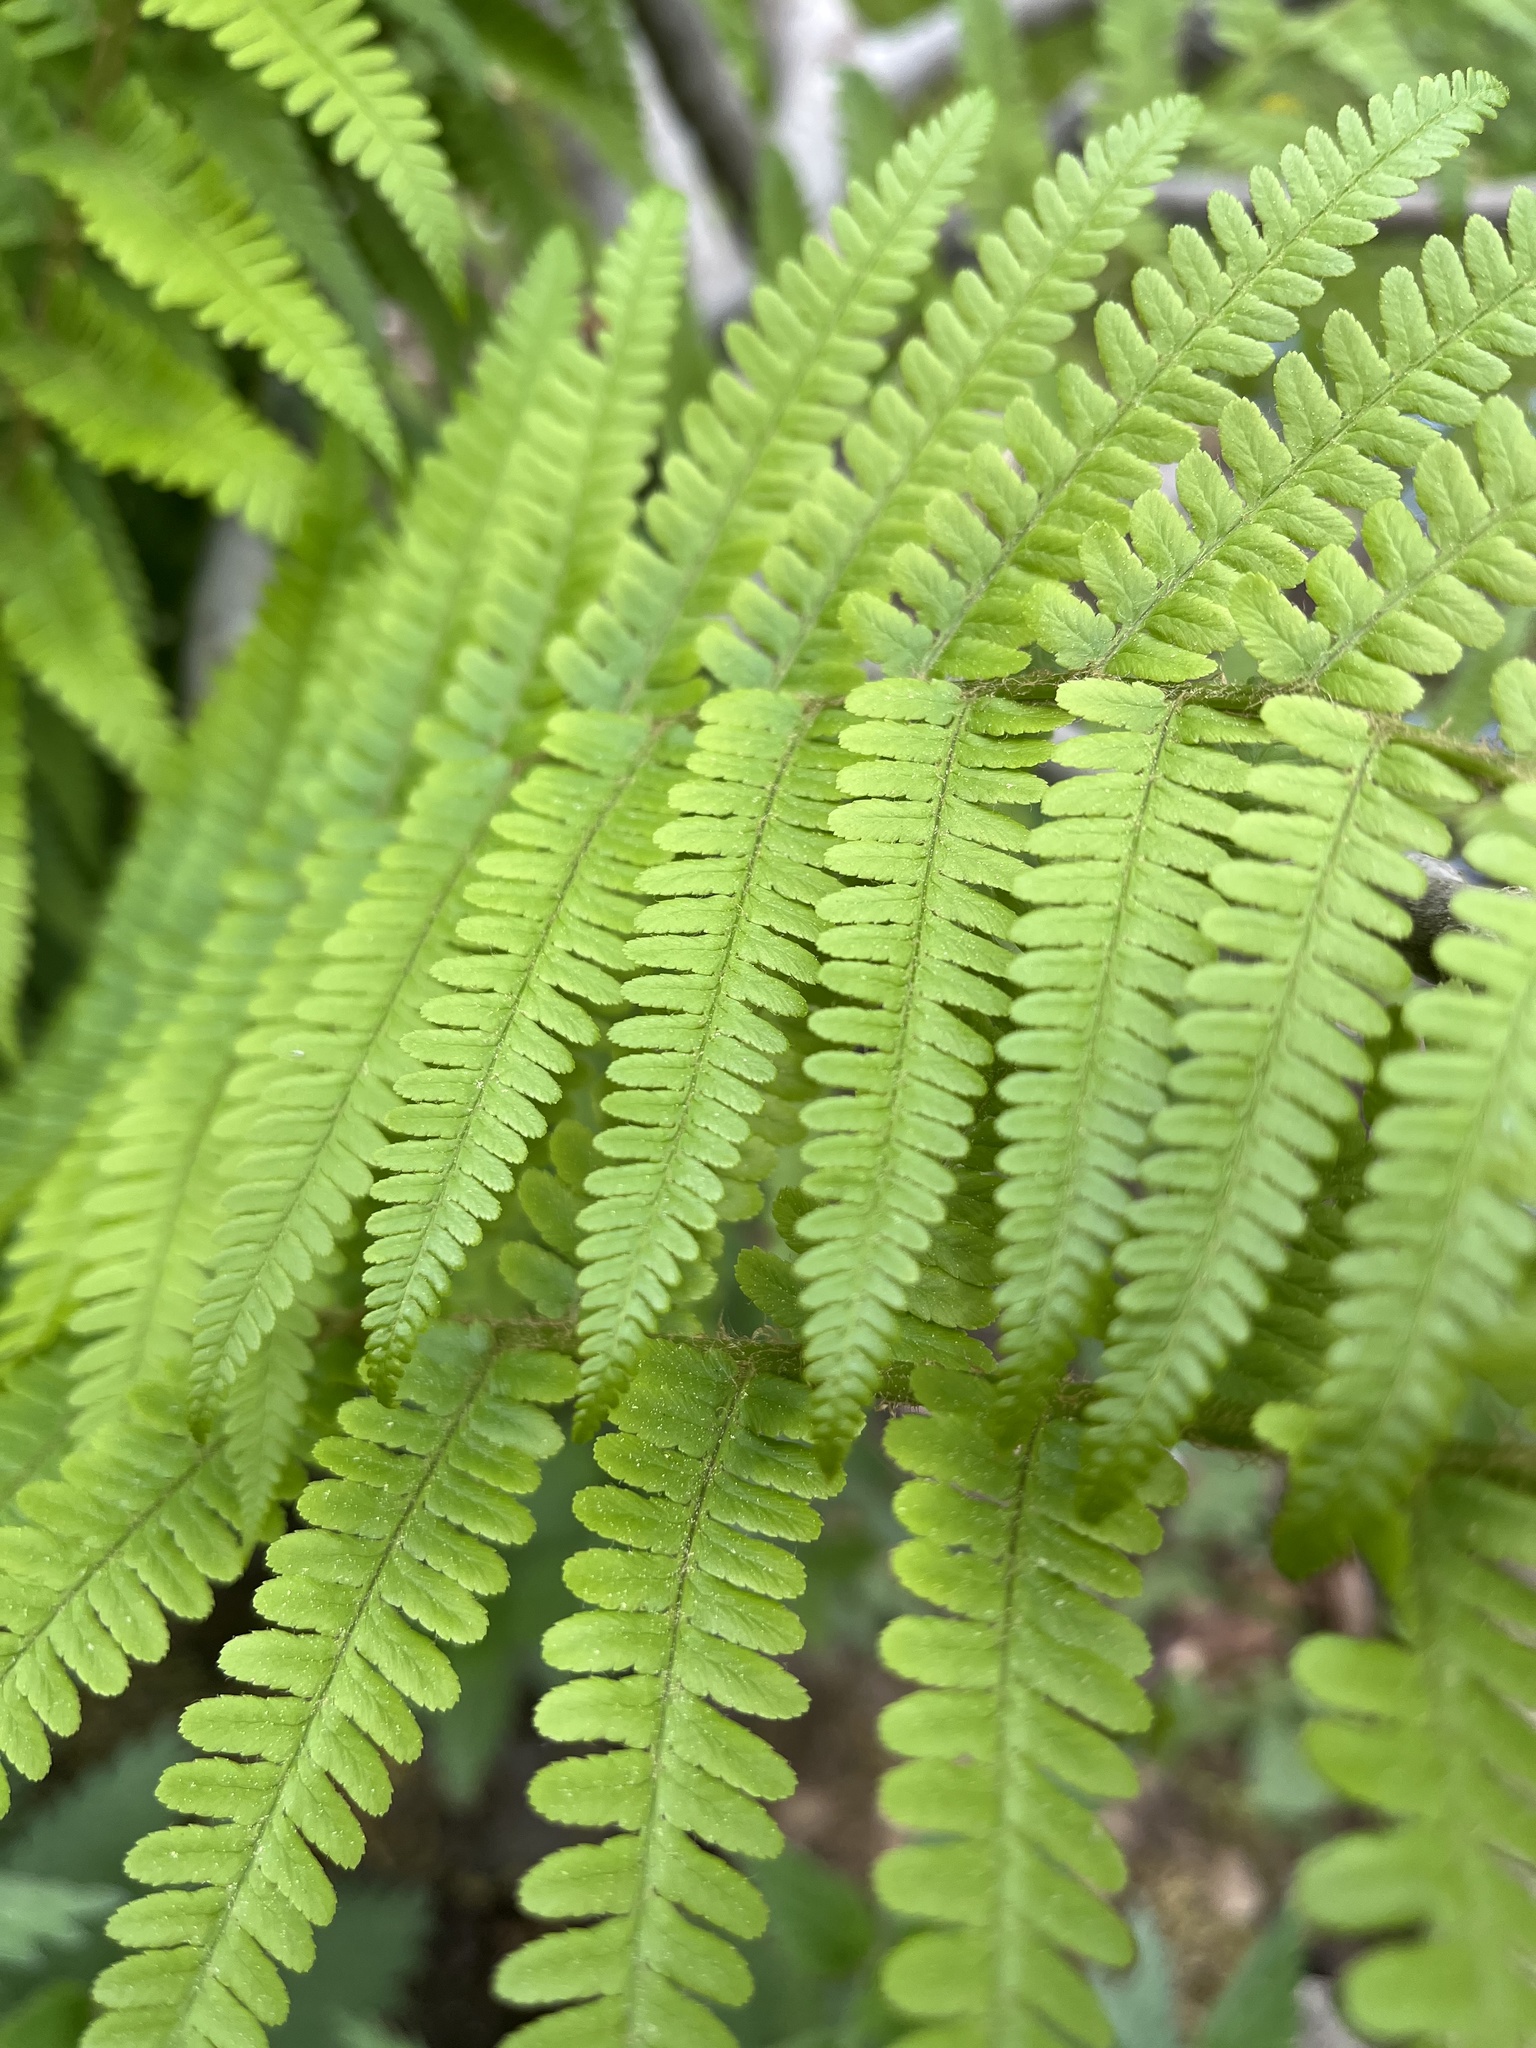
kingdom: Plantae
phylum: Tracheophyta
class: Polypodiopsida
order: Polypodiales
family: Dryopteridaceae
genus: Dryopteris
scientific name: Dryopteris filix-mas
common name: Male fern
